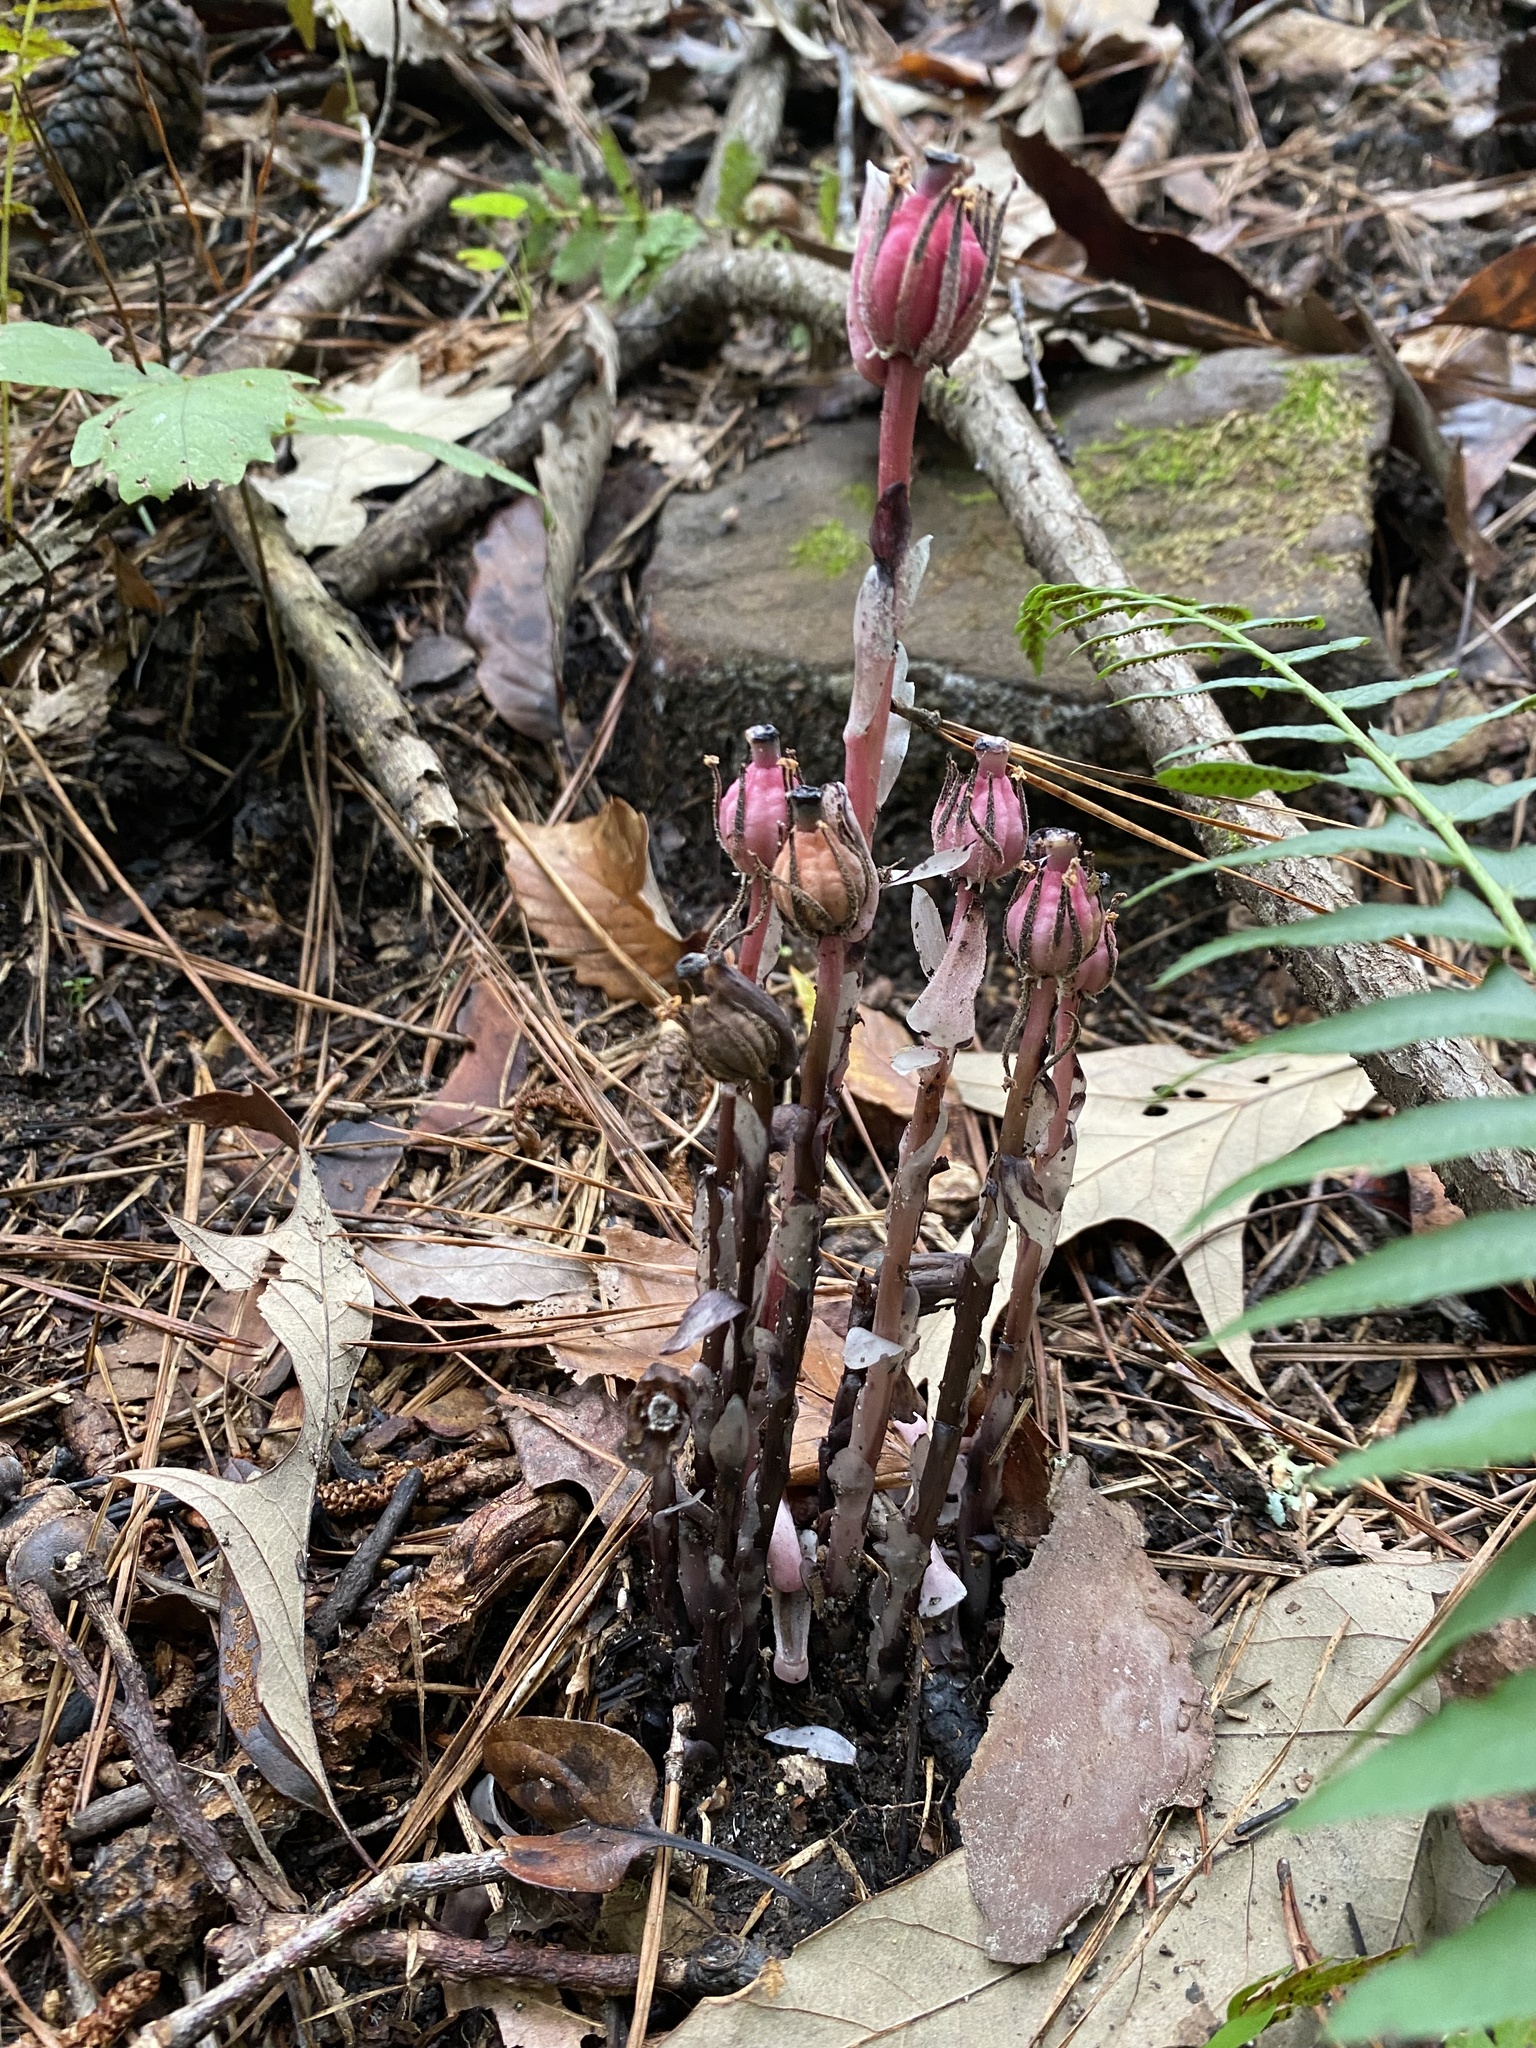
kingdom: Plantae
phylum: Tracheophyta
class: Magnoliopsida
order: Ericales
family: Ericaceae
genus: Monotropa
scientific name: Monotropa uniflora
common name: Convulsion root
